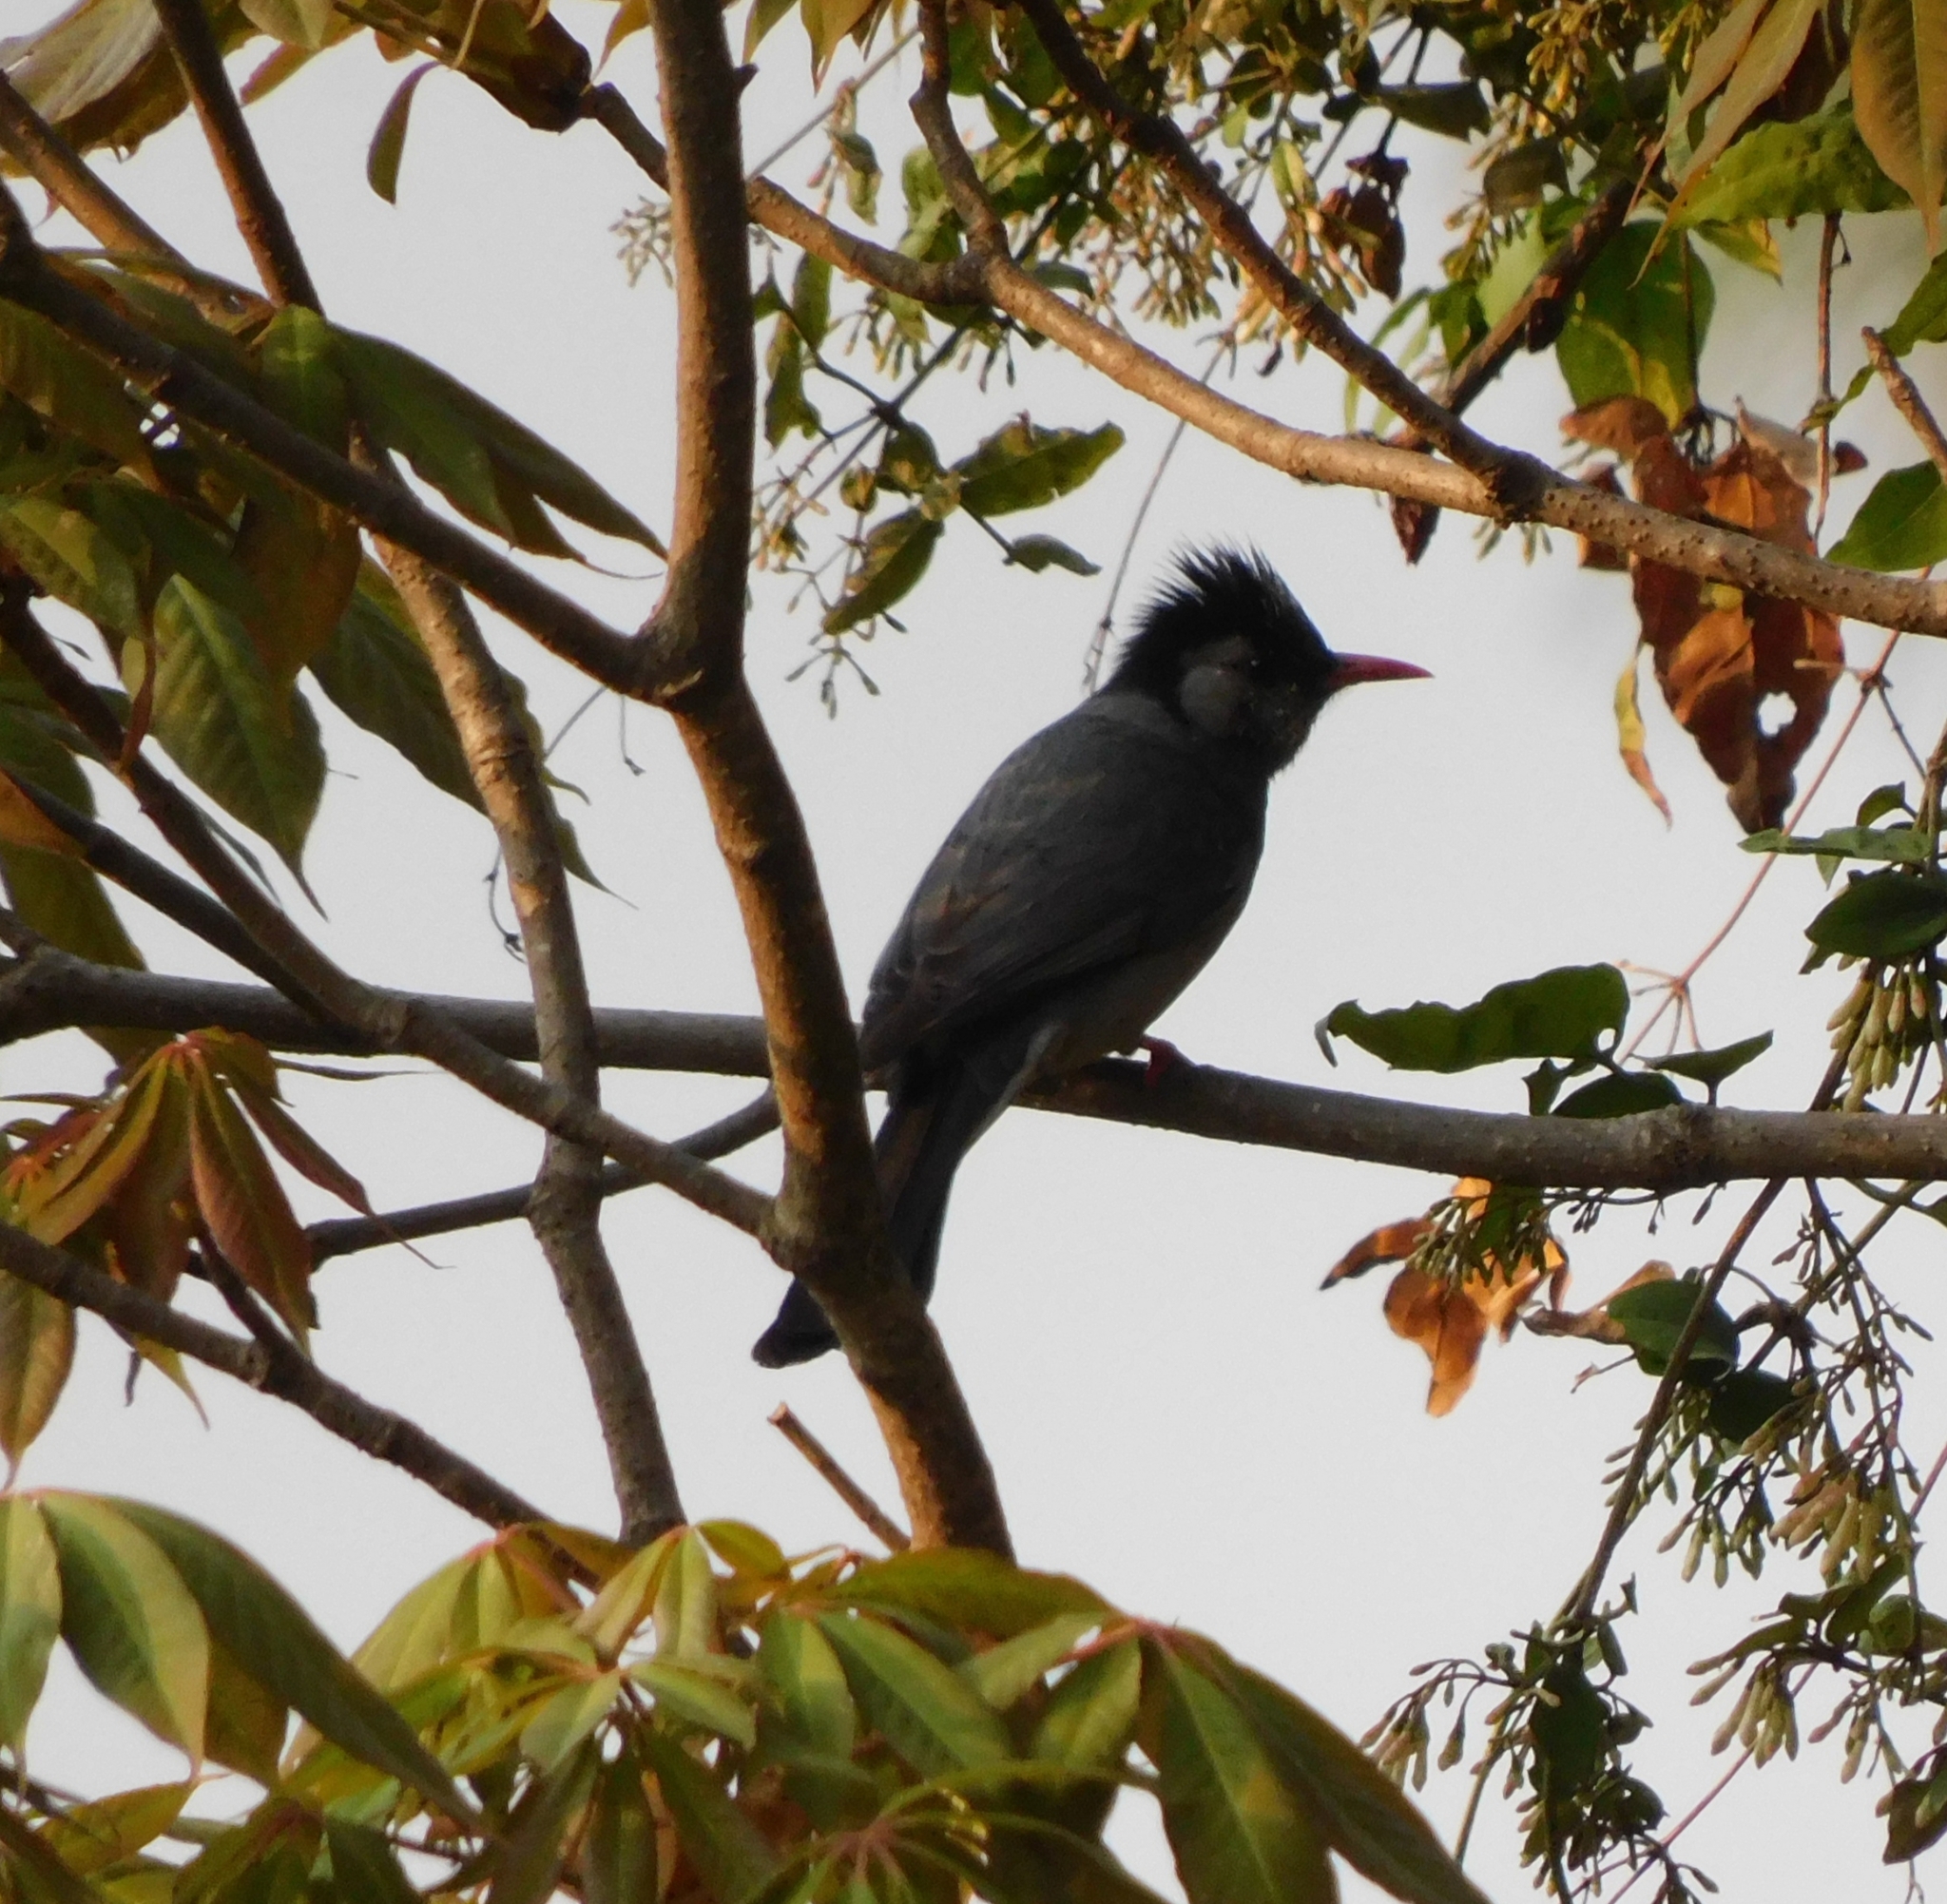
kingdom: Animalia
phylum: Chordata
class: Aves
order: Passeriformes
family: Pycnonotidae
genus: Hypsipetes
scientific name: Hypsipetes leucocephalus
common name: Black bulbul
